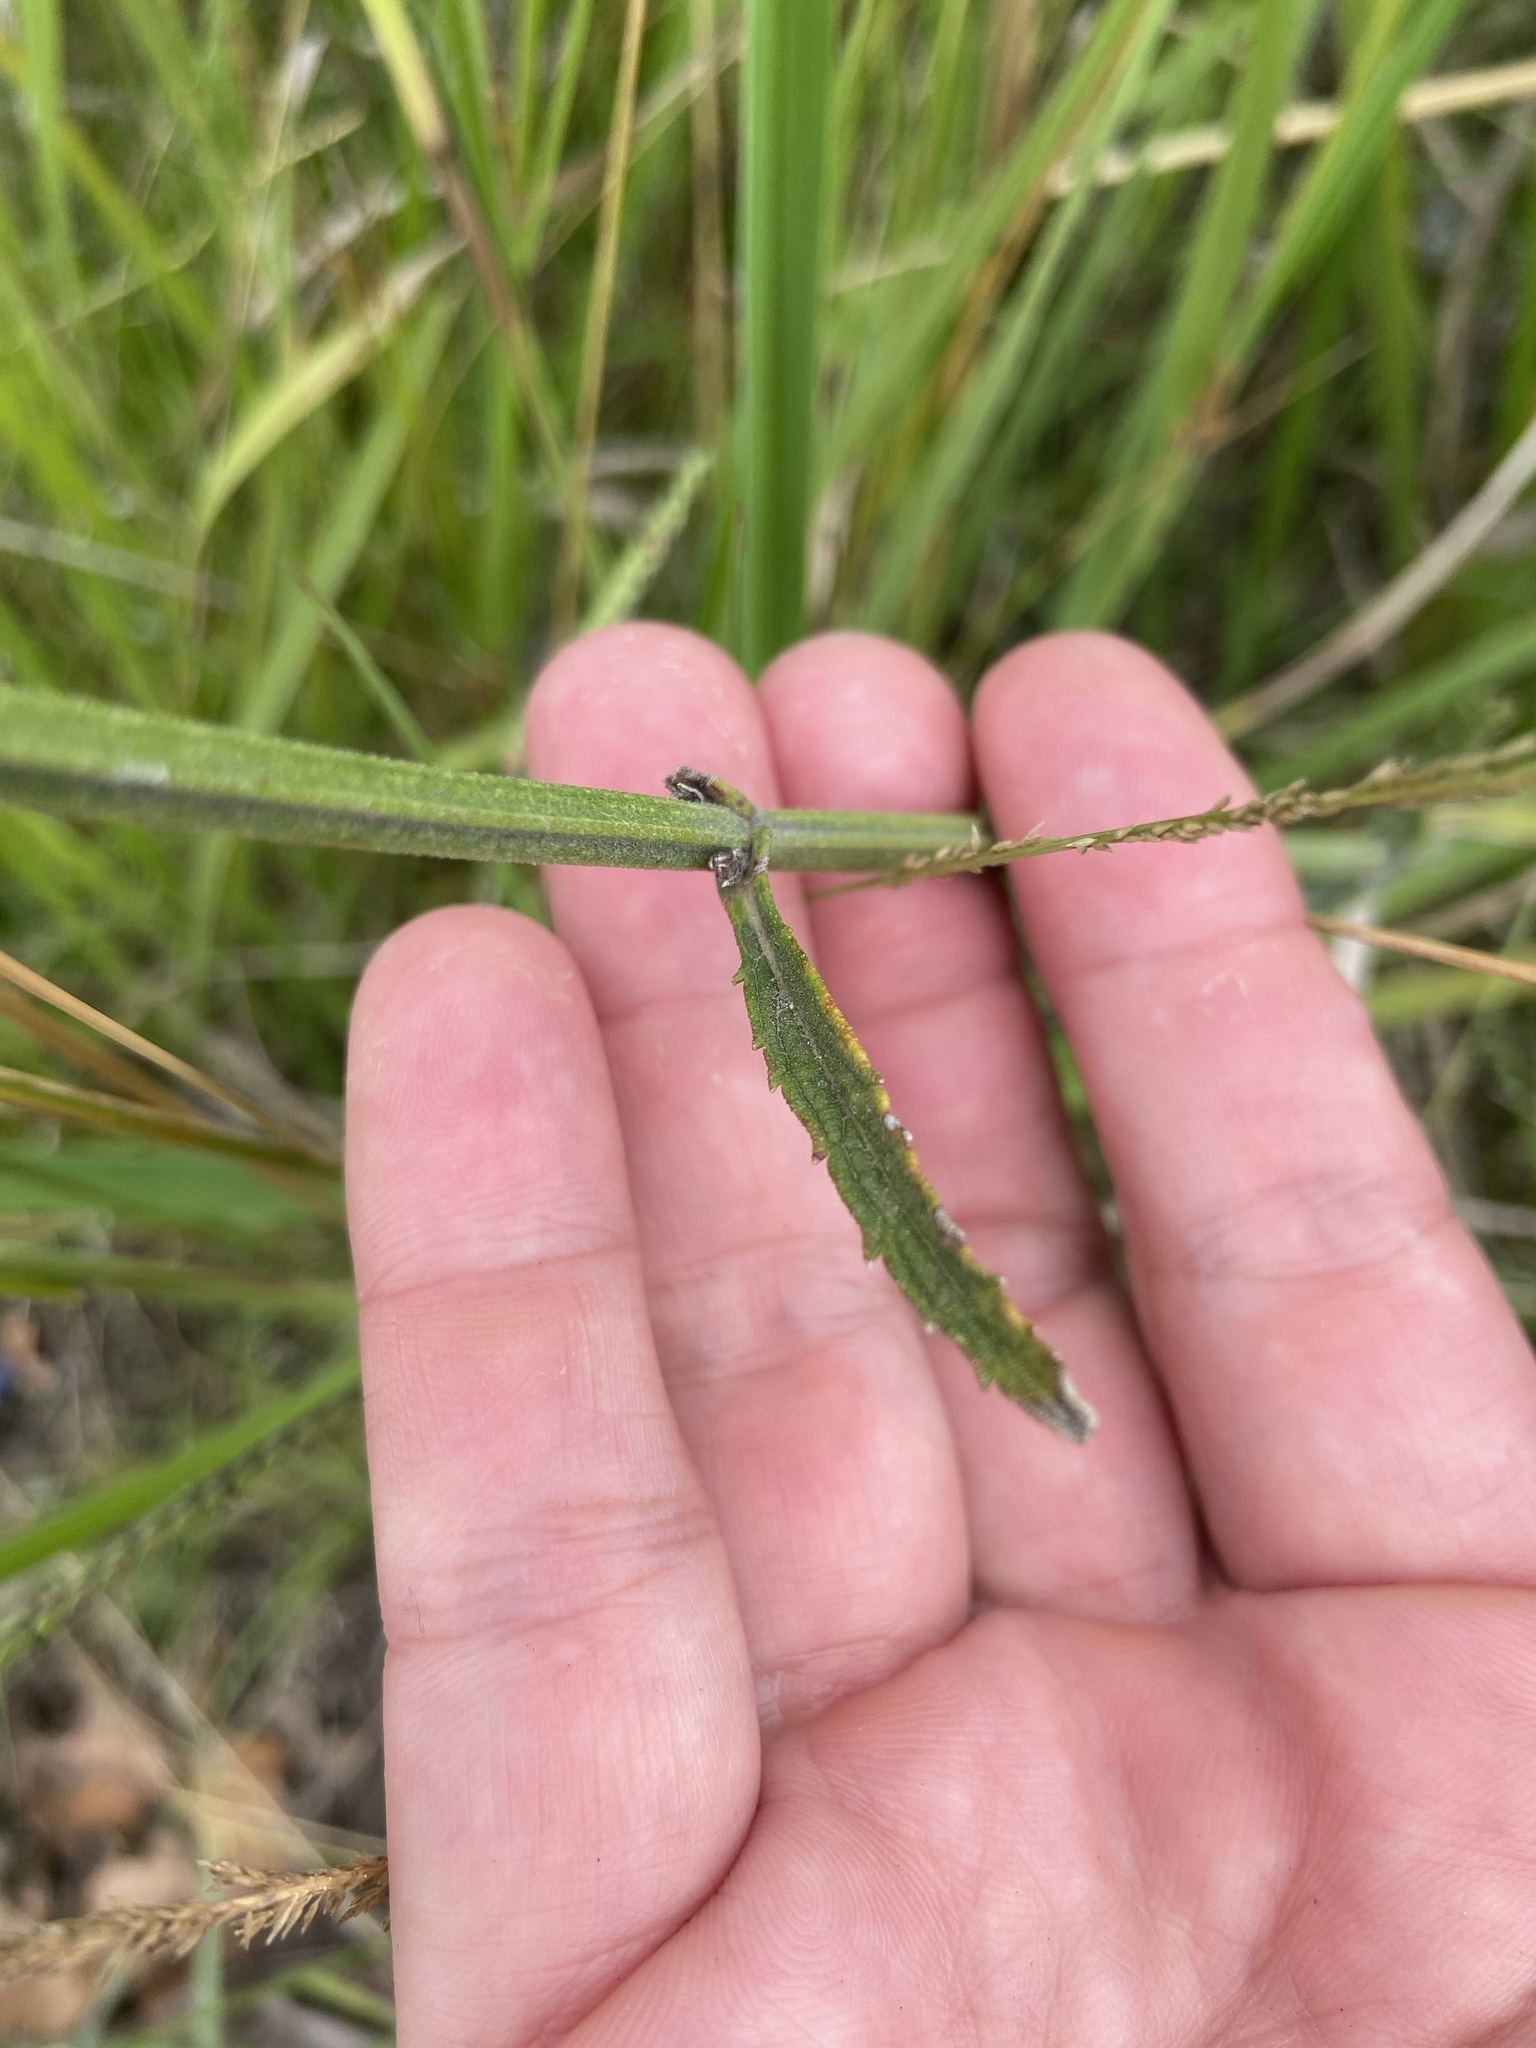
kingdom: Plantae
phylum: Tracheophyta
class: Magnoliopsida
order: Lamiales
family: Verbenaceae
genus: Verbena
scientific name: Verbena bonariensis
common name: Purpletop vervain
